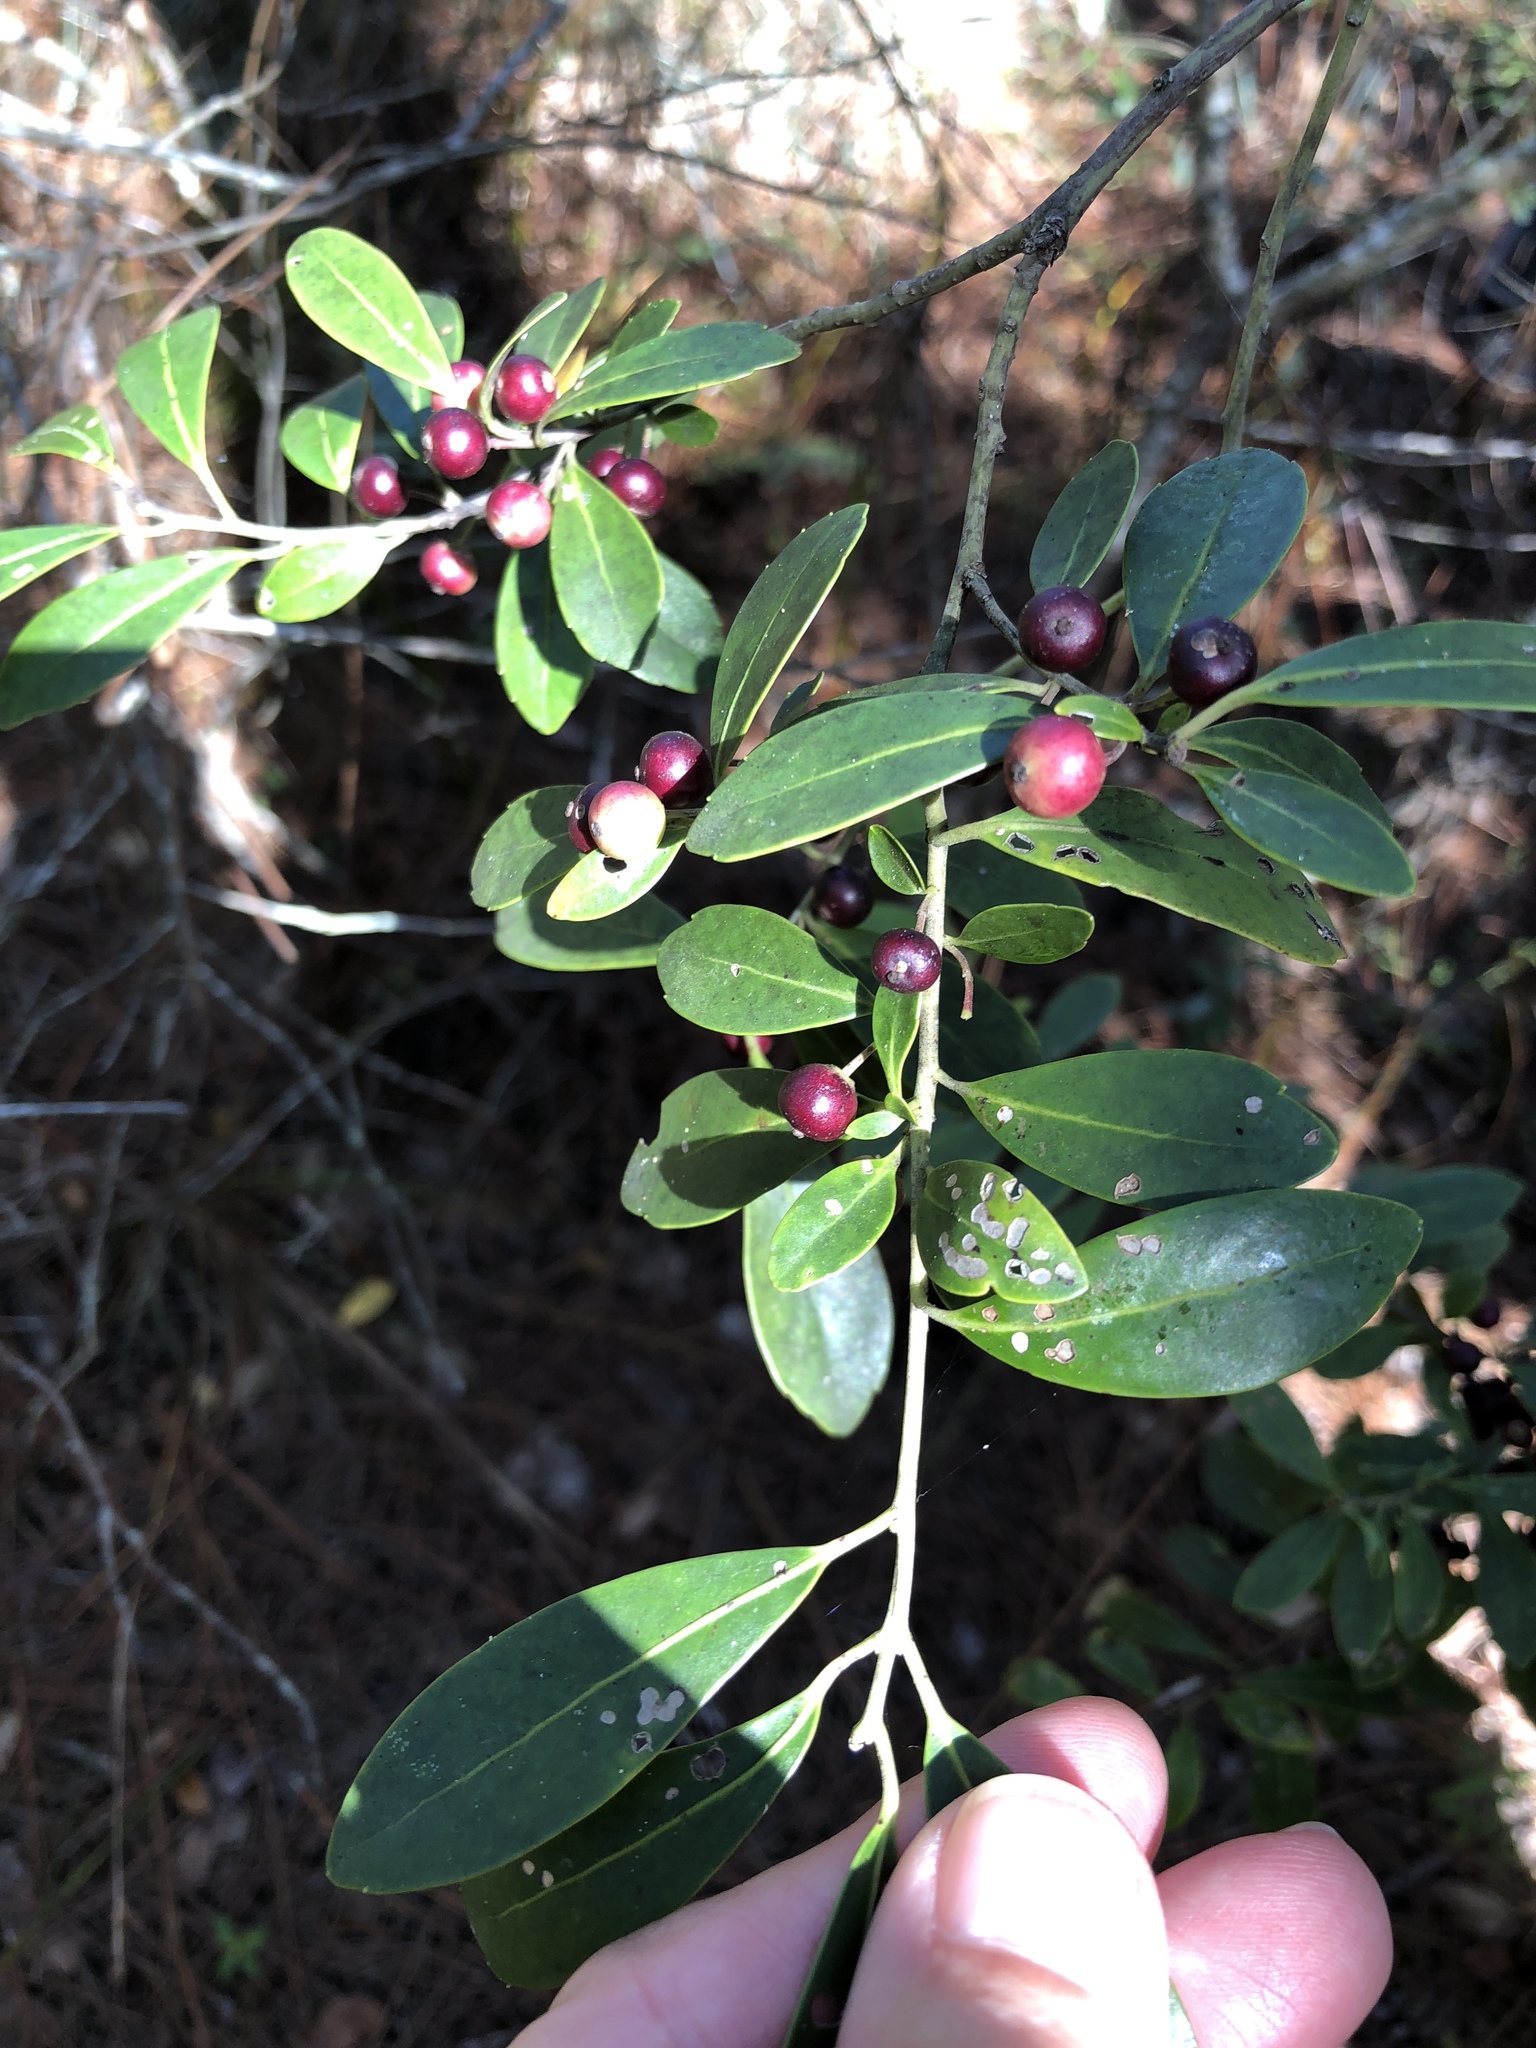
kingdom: Plantae
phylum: Tracheophyta
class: Magnoliopsida
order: Aquifoliales
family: Aquifoliaceae
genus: Ilex
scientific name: Ilex glabra
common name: Bitter gallberry
